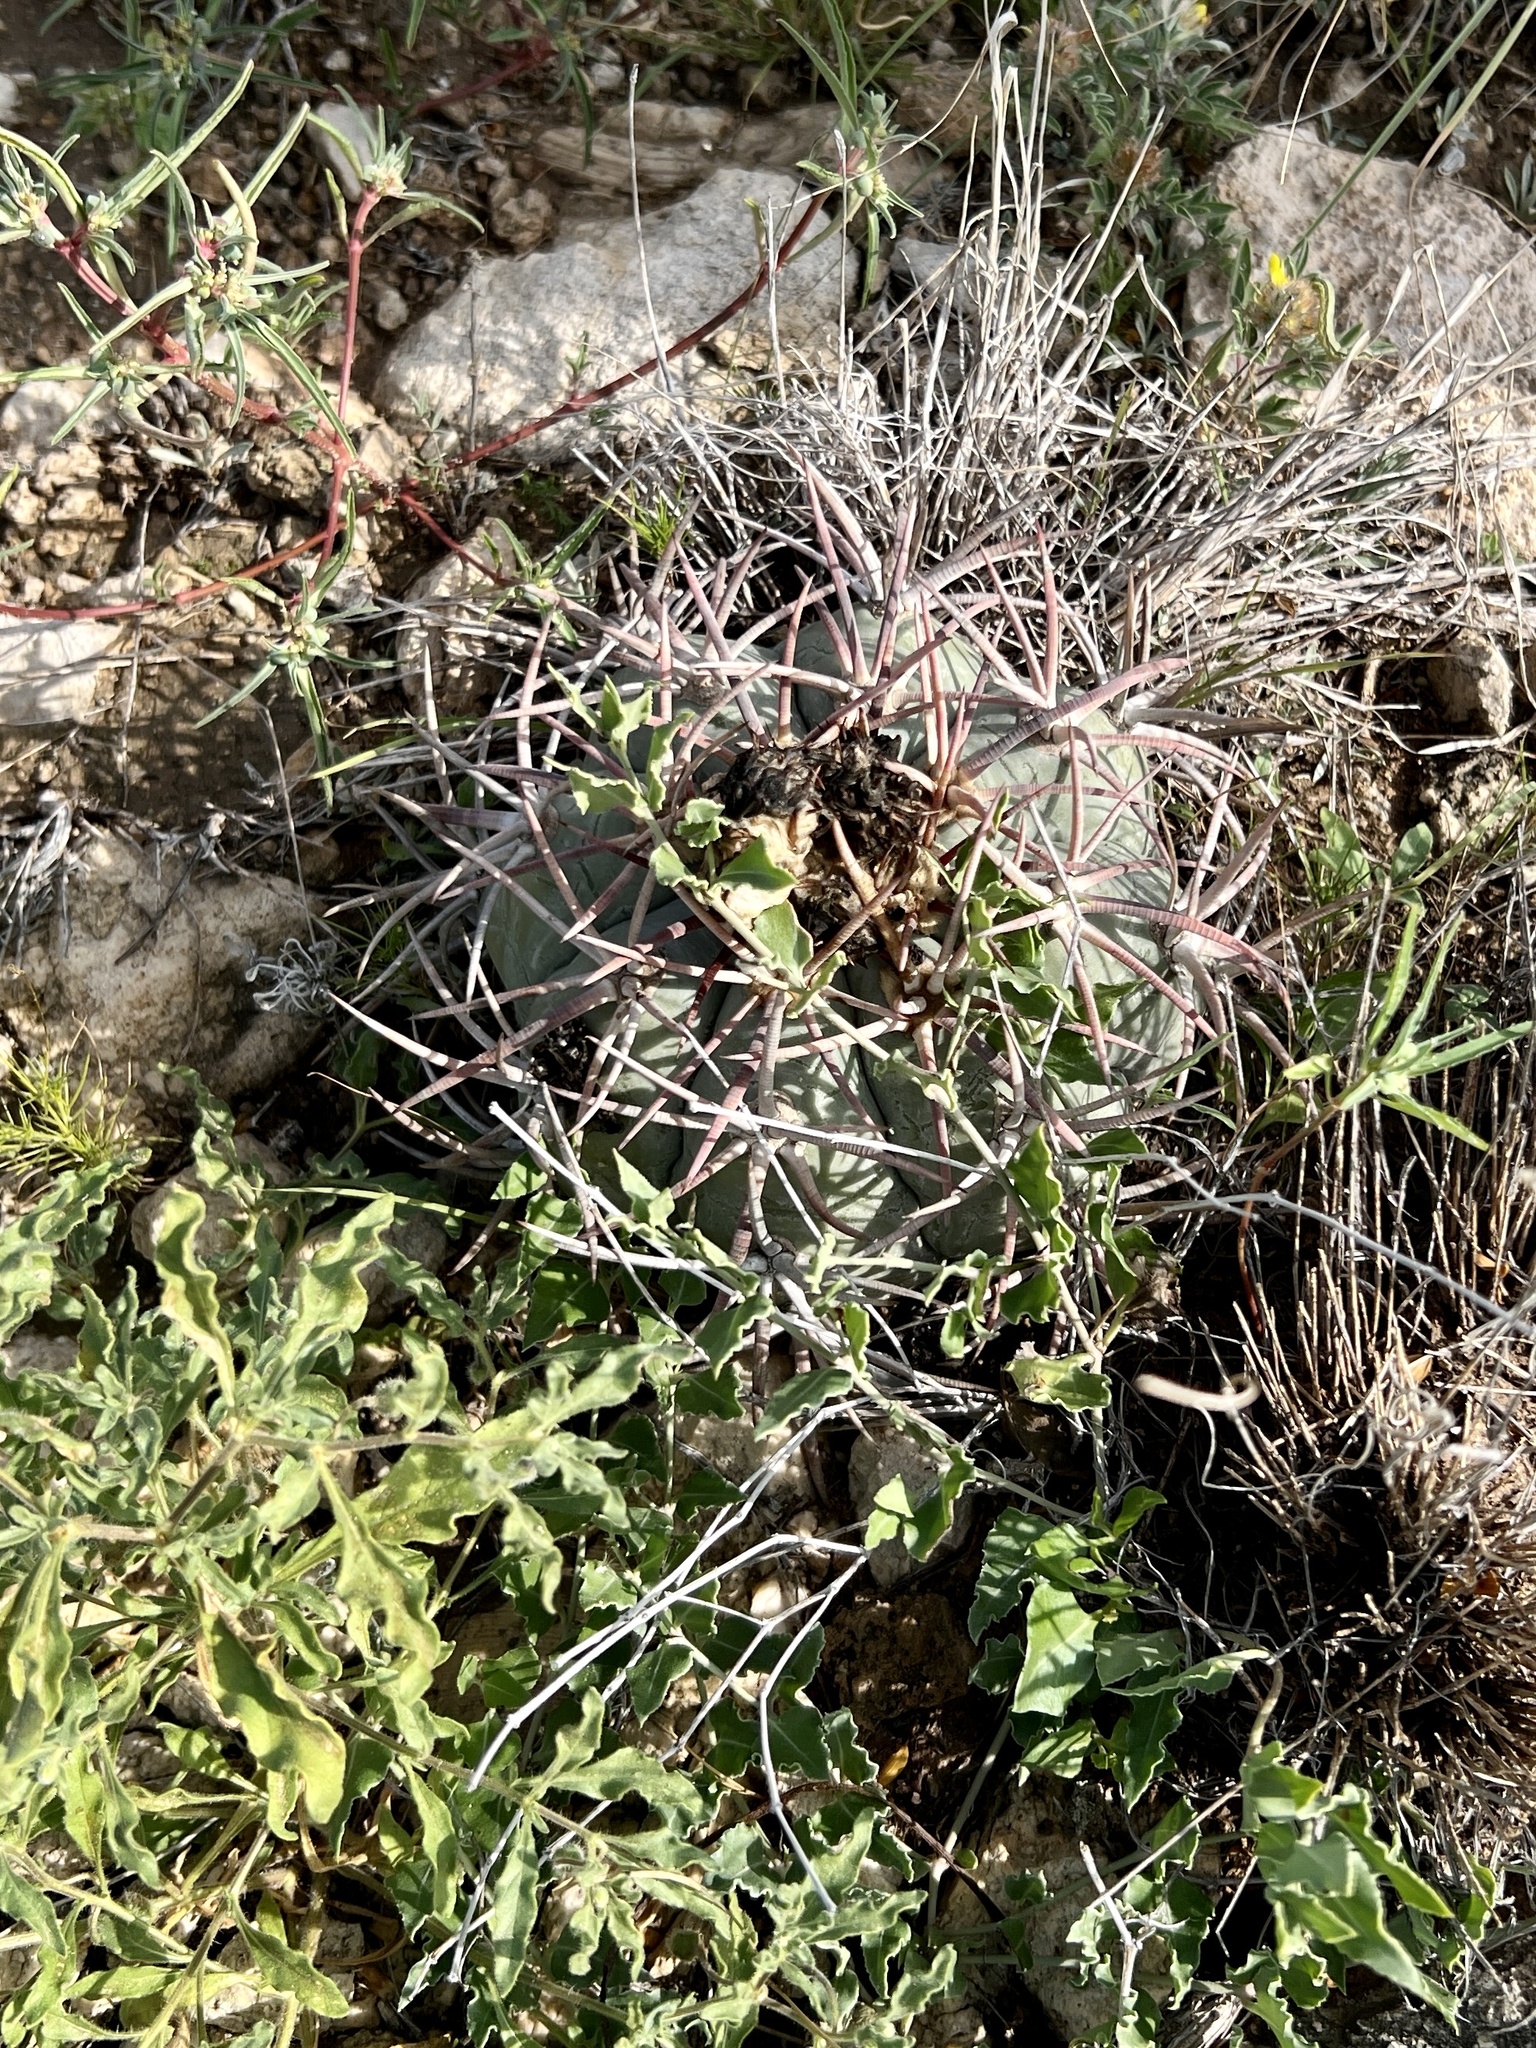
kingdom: Plantae
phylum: Tracheophyta
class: Magnoliopsida
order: Caryophyllales
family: Cactaceae
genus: Echinocactus
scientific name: Echinocactus horizonthalonius
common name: Devilshead
